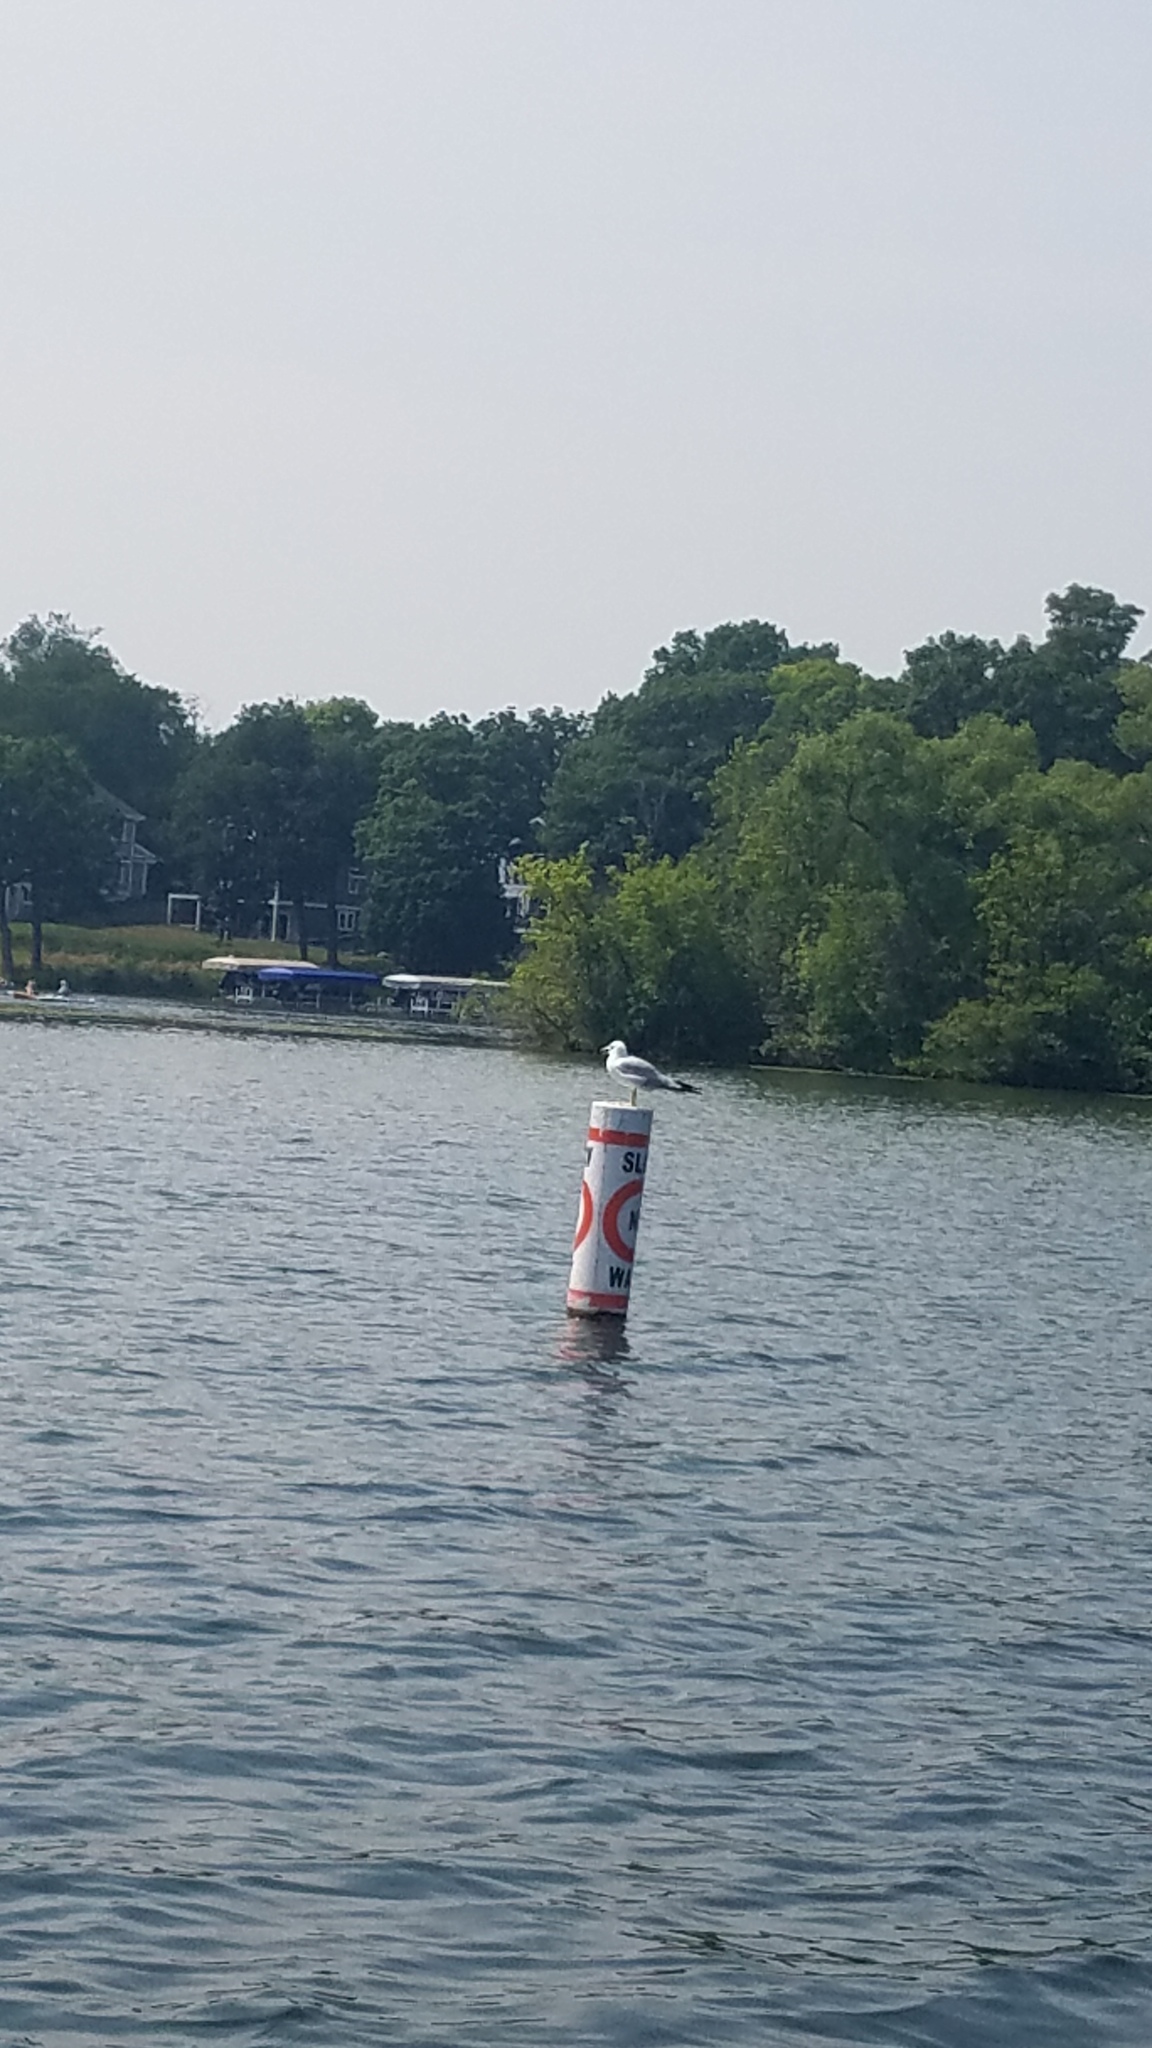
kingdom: Animalia
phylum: Chordata
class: Aves
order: Charadriiformes
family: Laridae
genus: Larus
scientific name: Larus delawarensis
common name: Ring-billed gull
